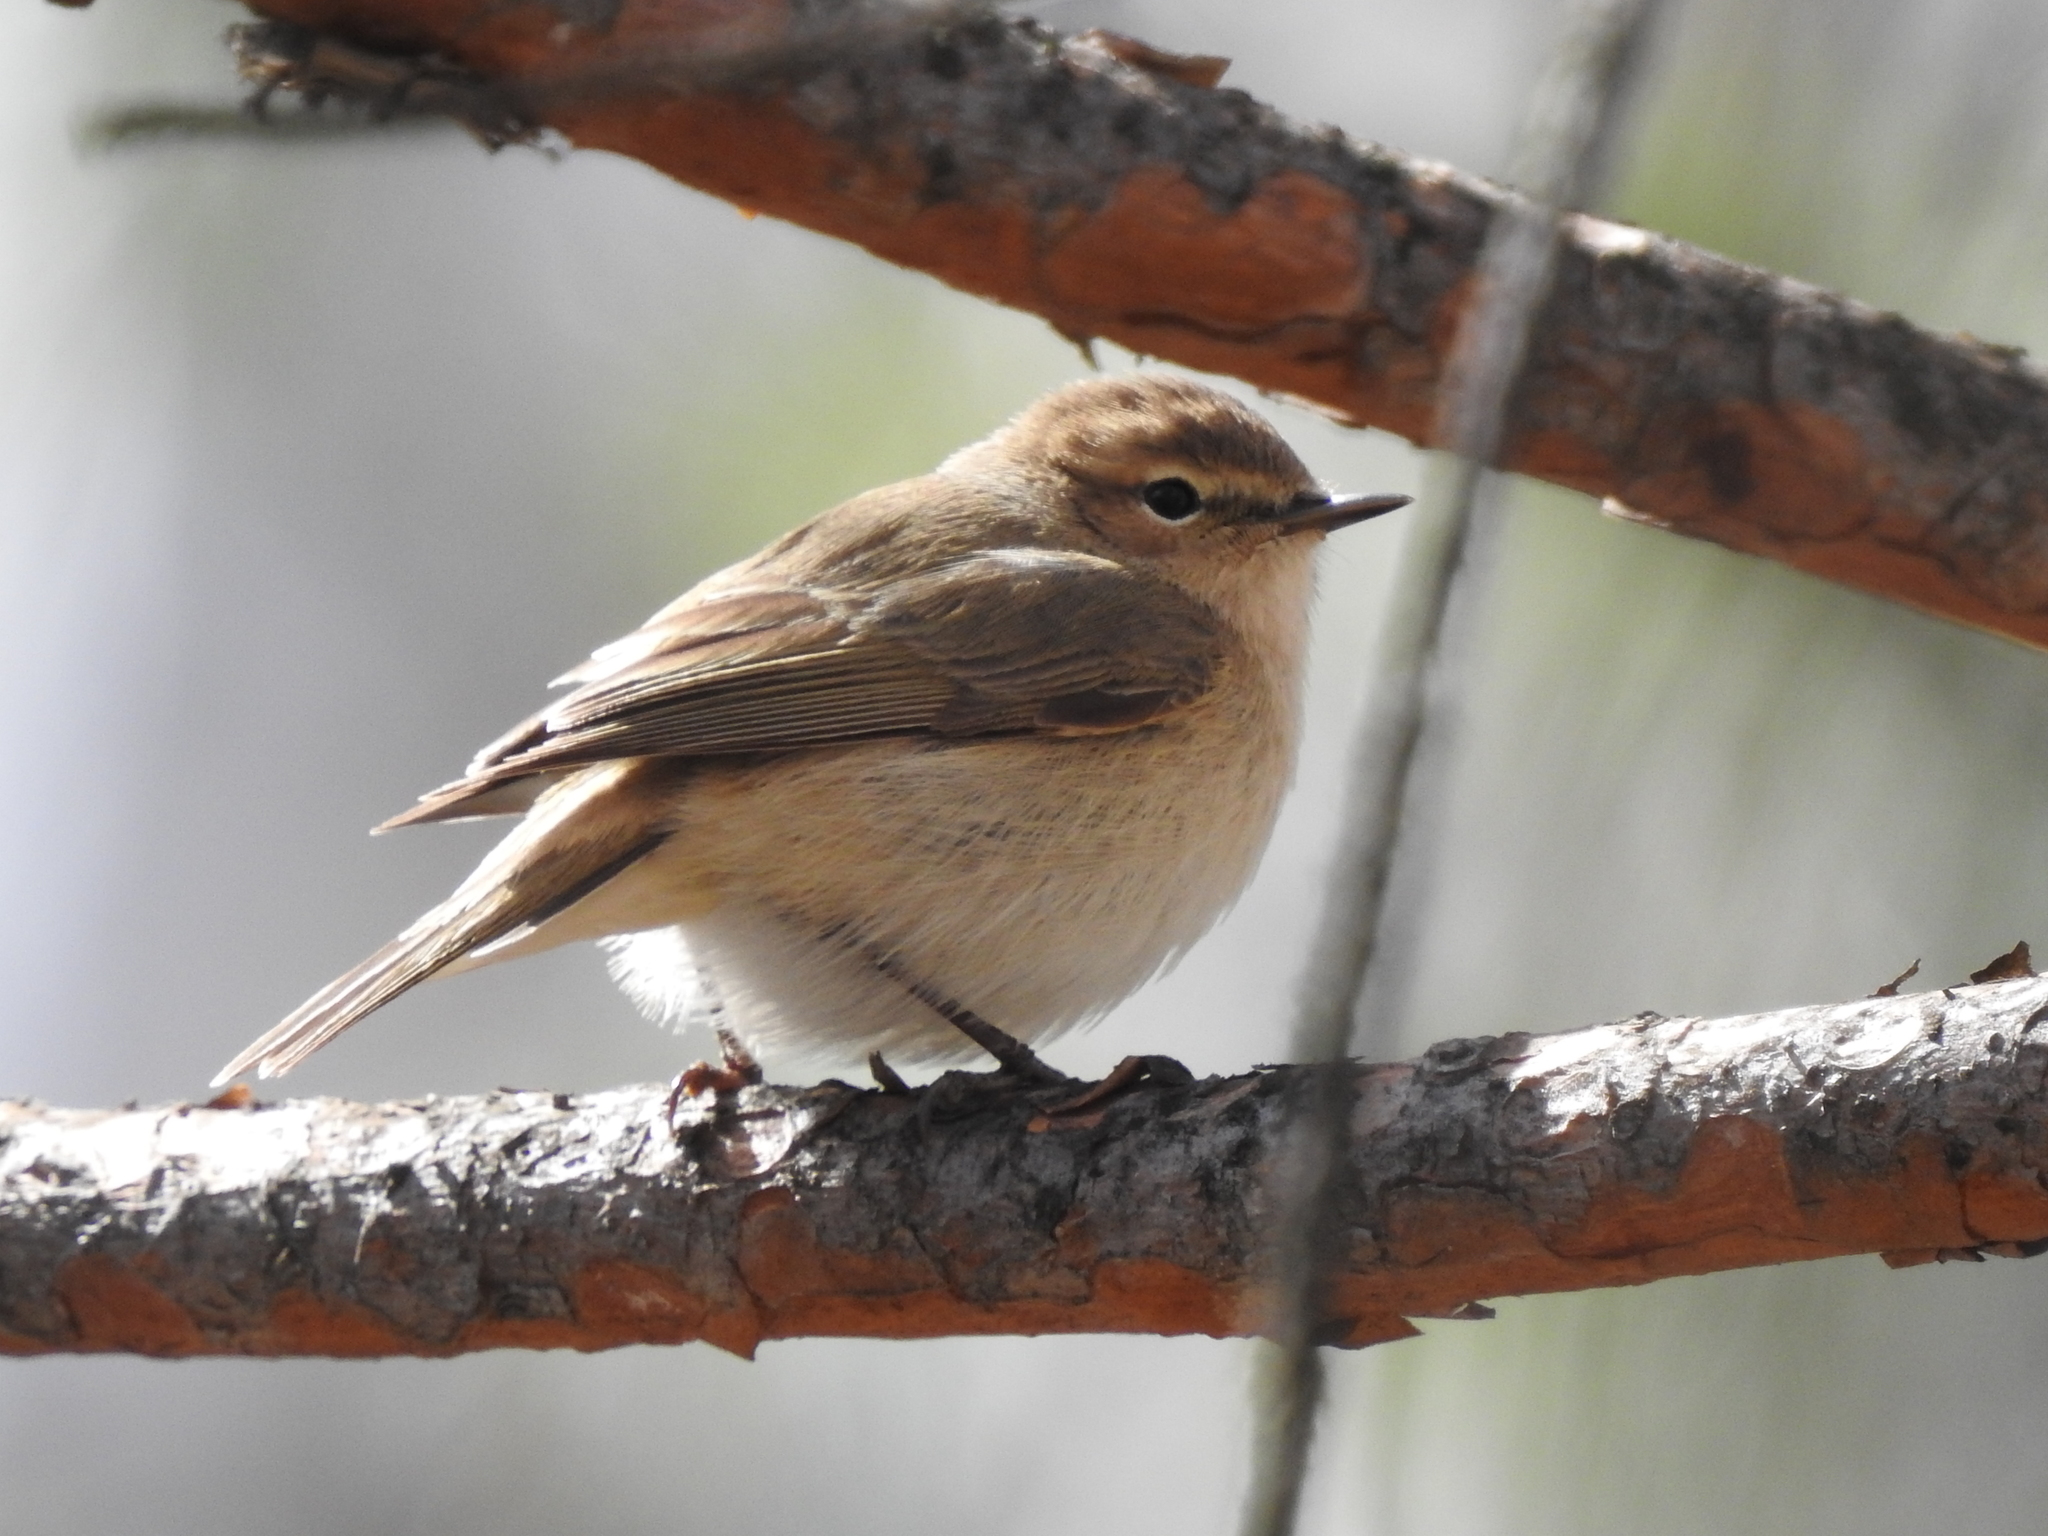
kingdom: Animalia
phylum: Chordata
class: Aves
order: Passeriformes
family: Phylloscopidae
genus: Phylloscopus
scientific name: Phylloscopus collybita
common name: Common chiffchaff
